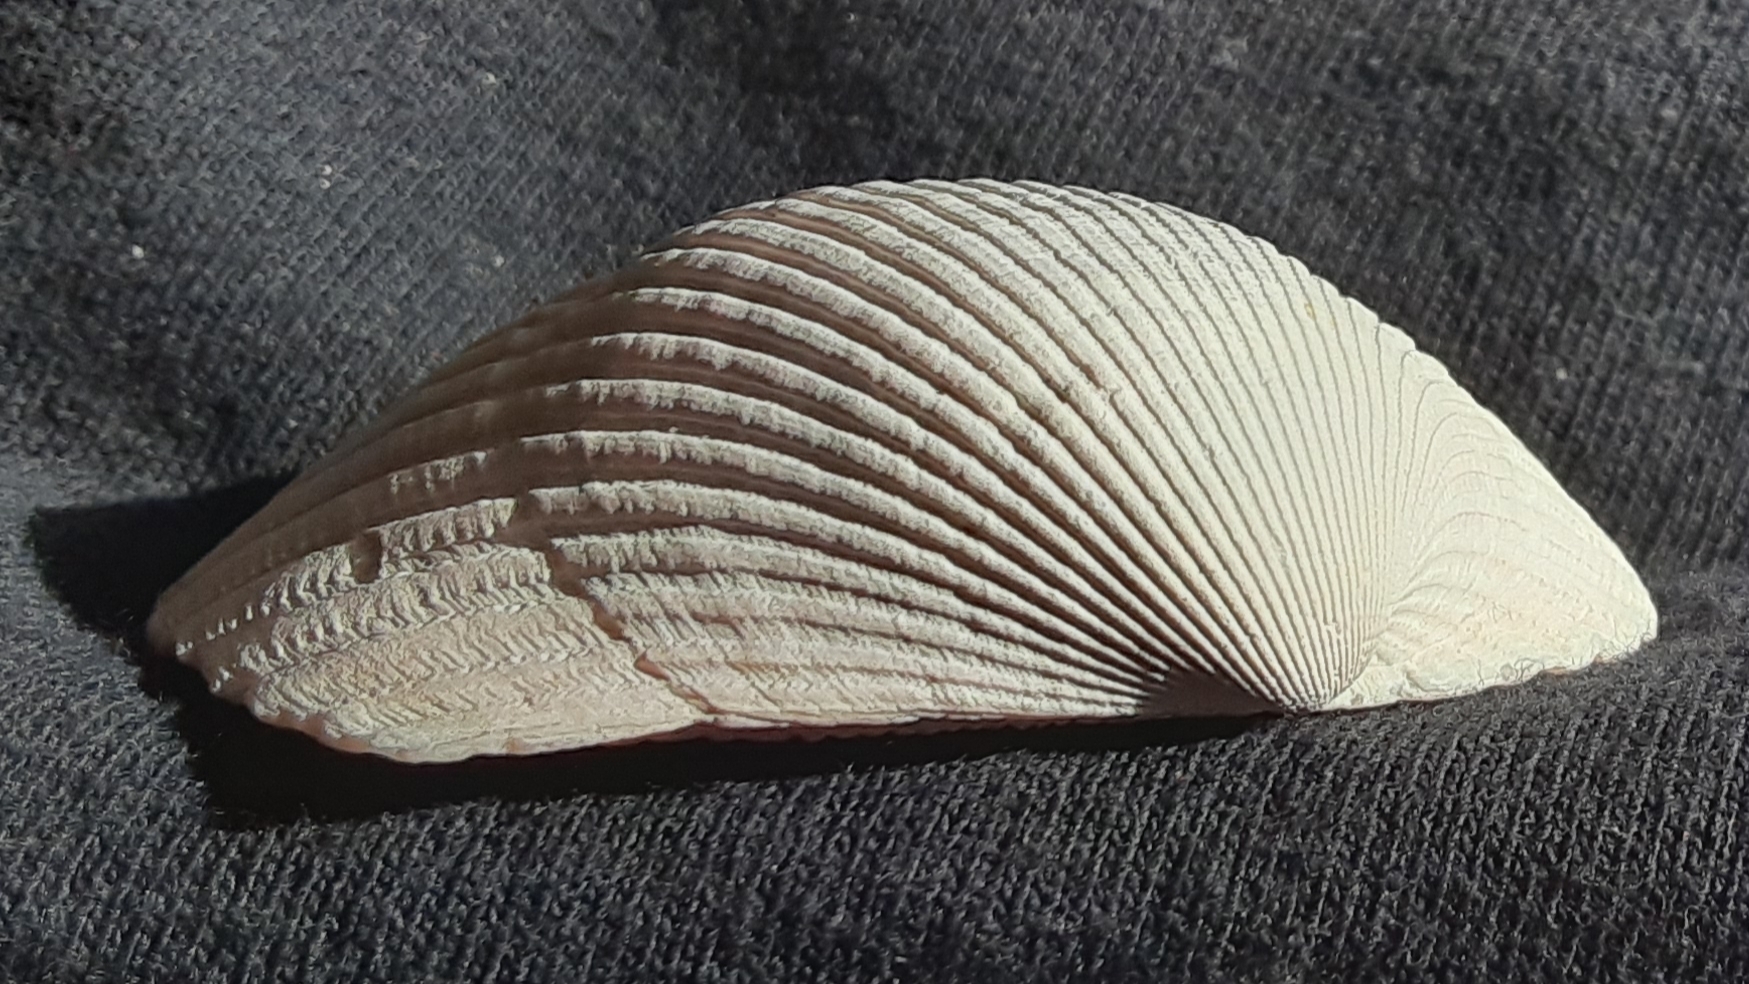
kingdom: Animalia
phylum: Mollusca
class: Bivalvia
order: Arcida
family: Arcidae
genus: Lunarca
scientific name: Lunarca ovalis
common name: Blood ark
